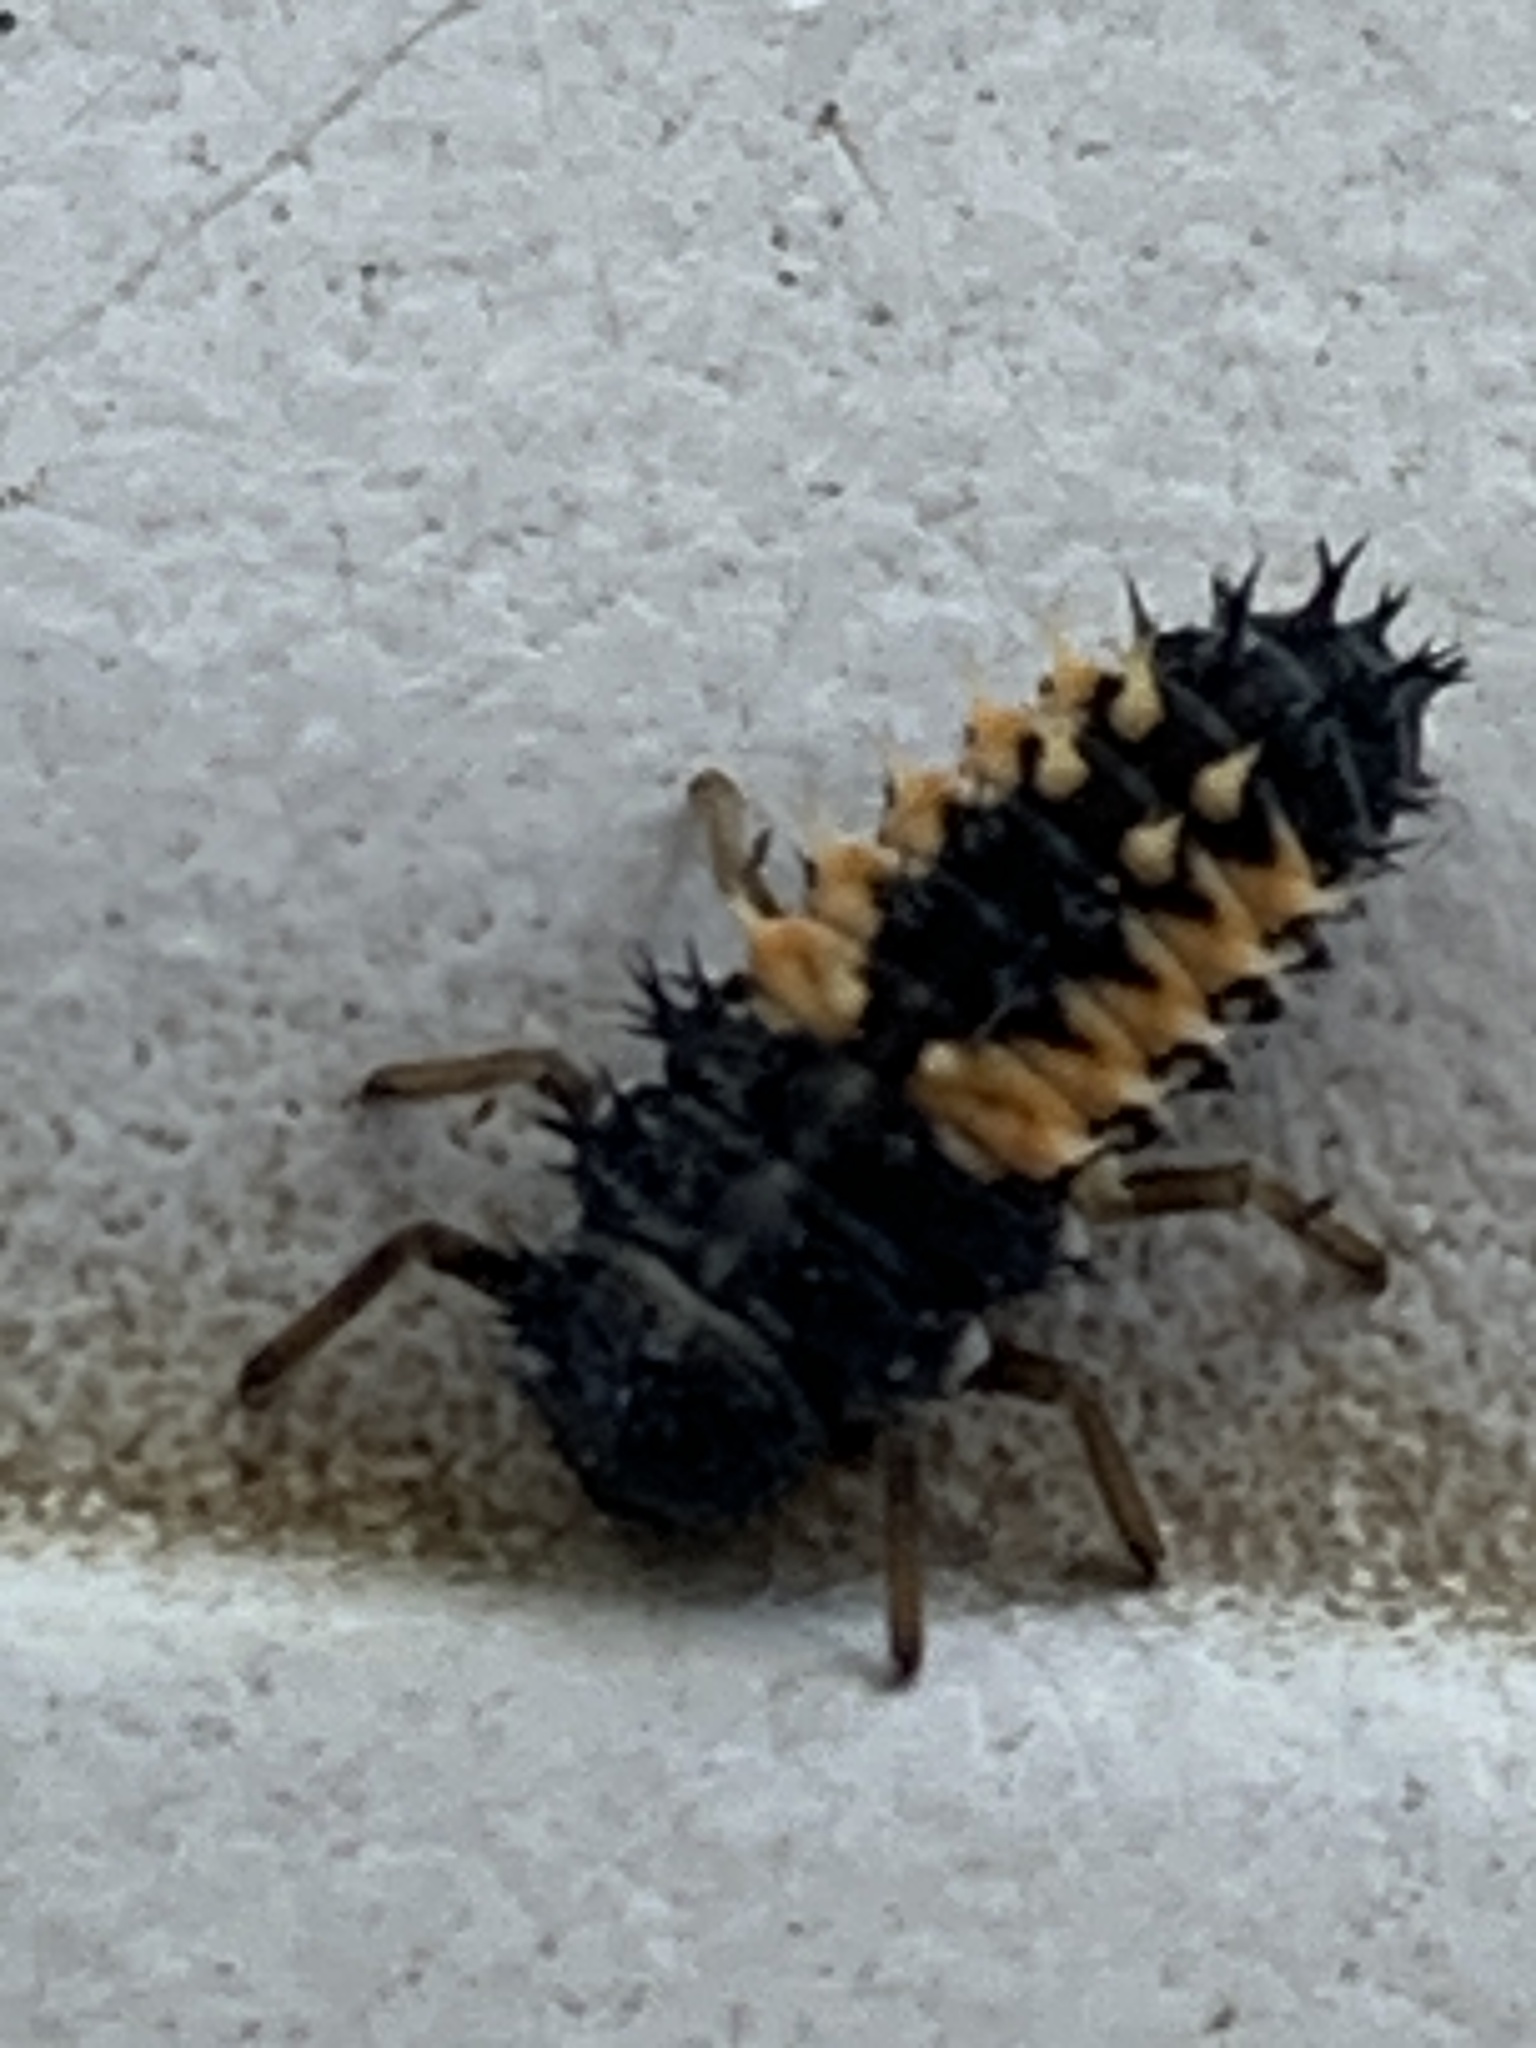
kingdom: Animalia
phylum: Arthropoda
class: Insecta
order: Coleoptera
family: Coccinellidae
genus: Harmonia
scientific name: Harmonia axyridis
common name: Harlequin ladybird
